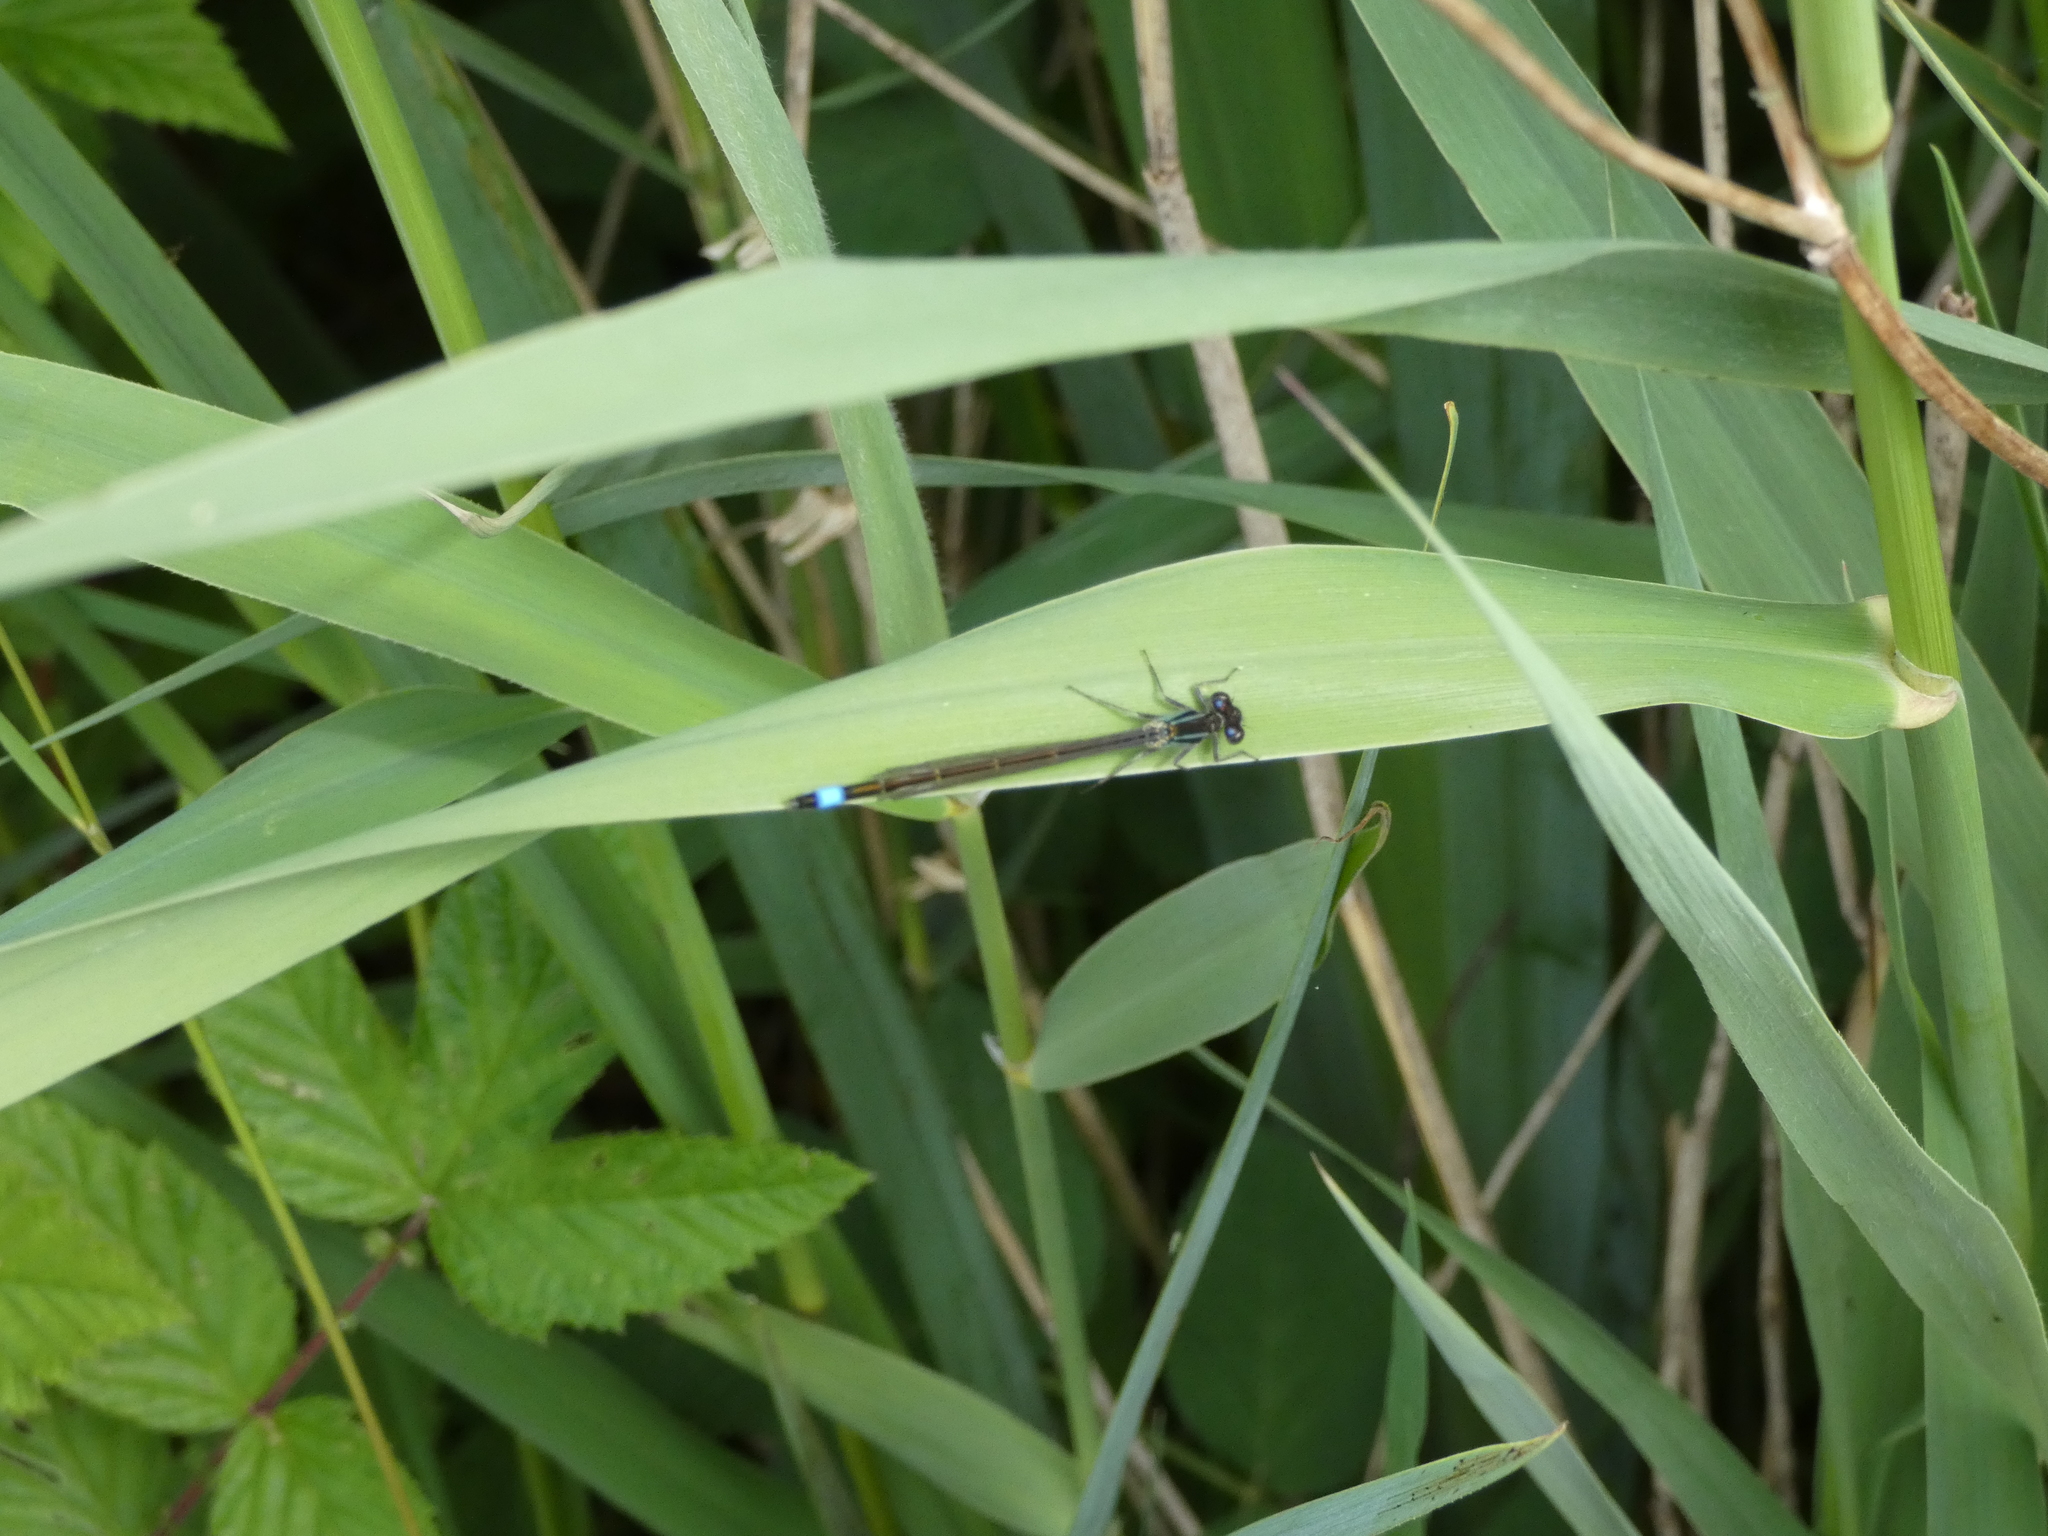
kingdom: Animalia
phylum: Arthropoda
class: Insecta
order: Odonata
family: Coenagrionidae
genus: Ischnura
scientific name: Ischnura elegans
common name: Blue-tailed damselfly
